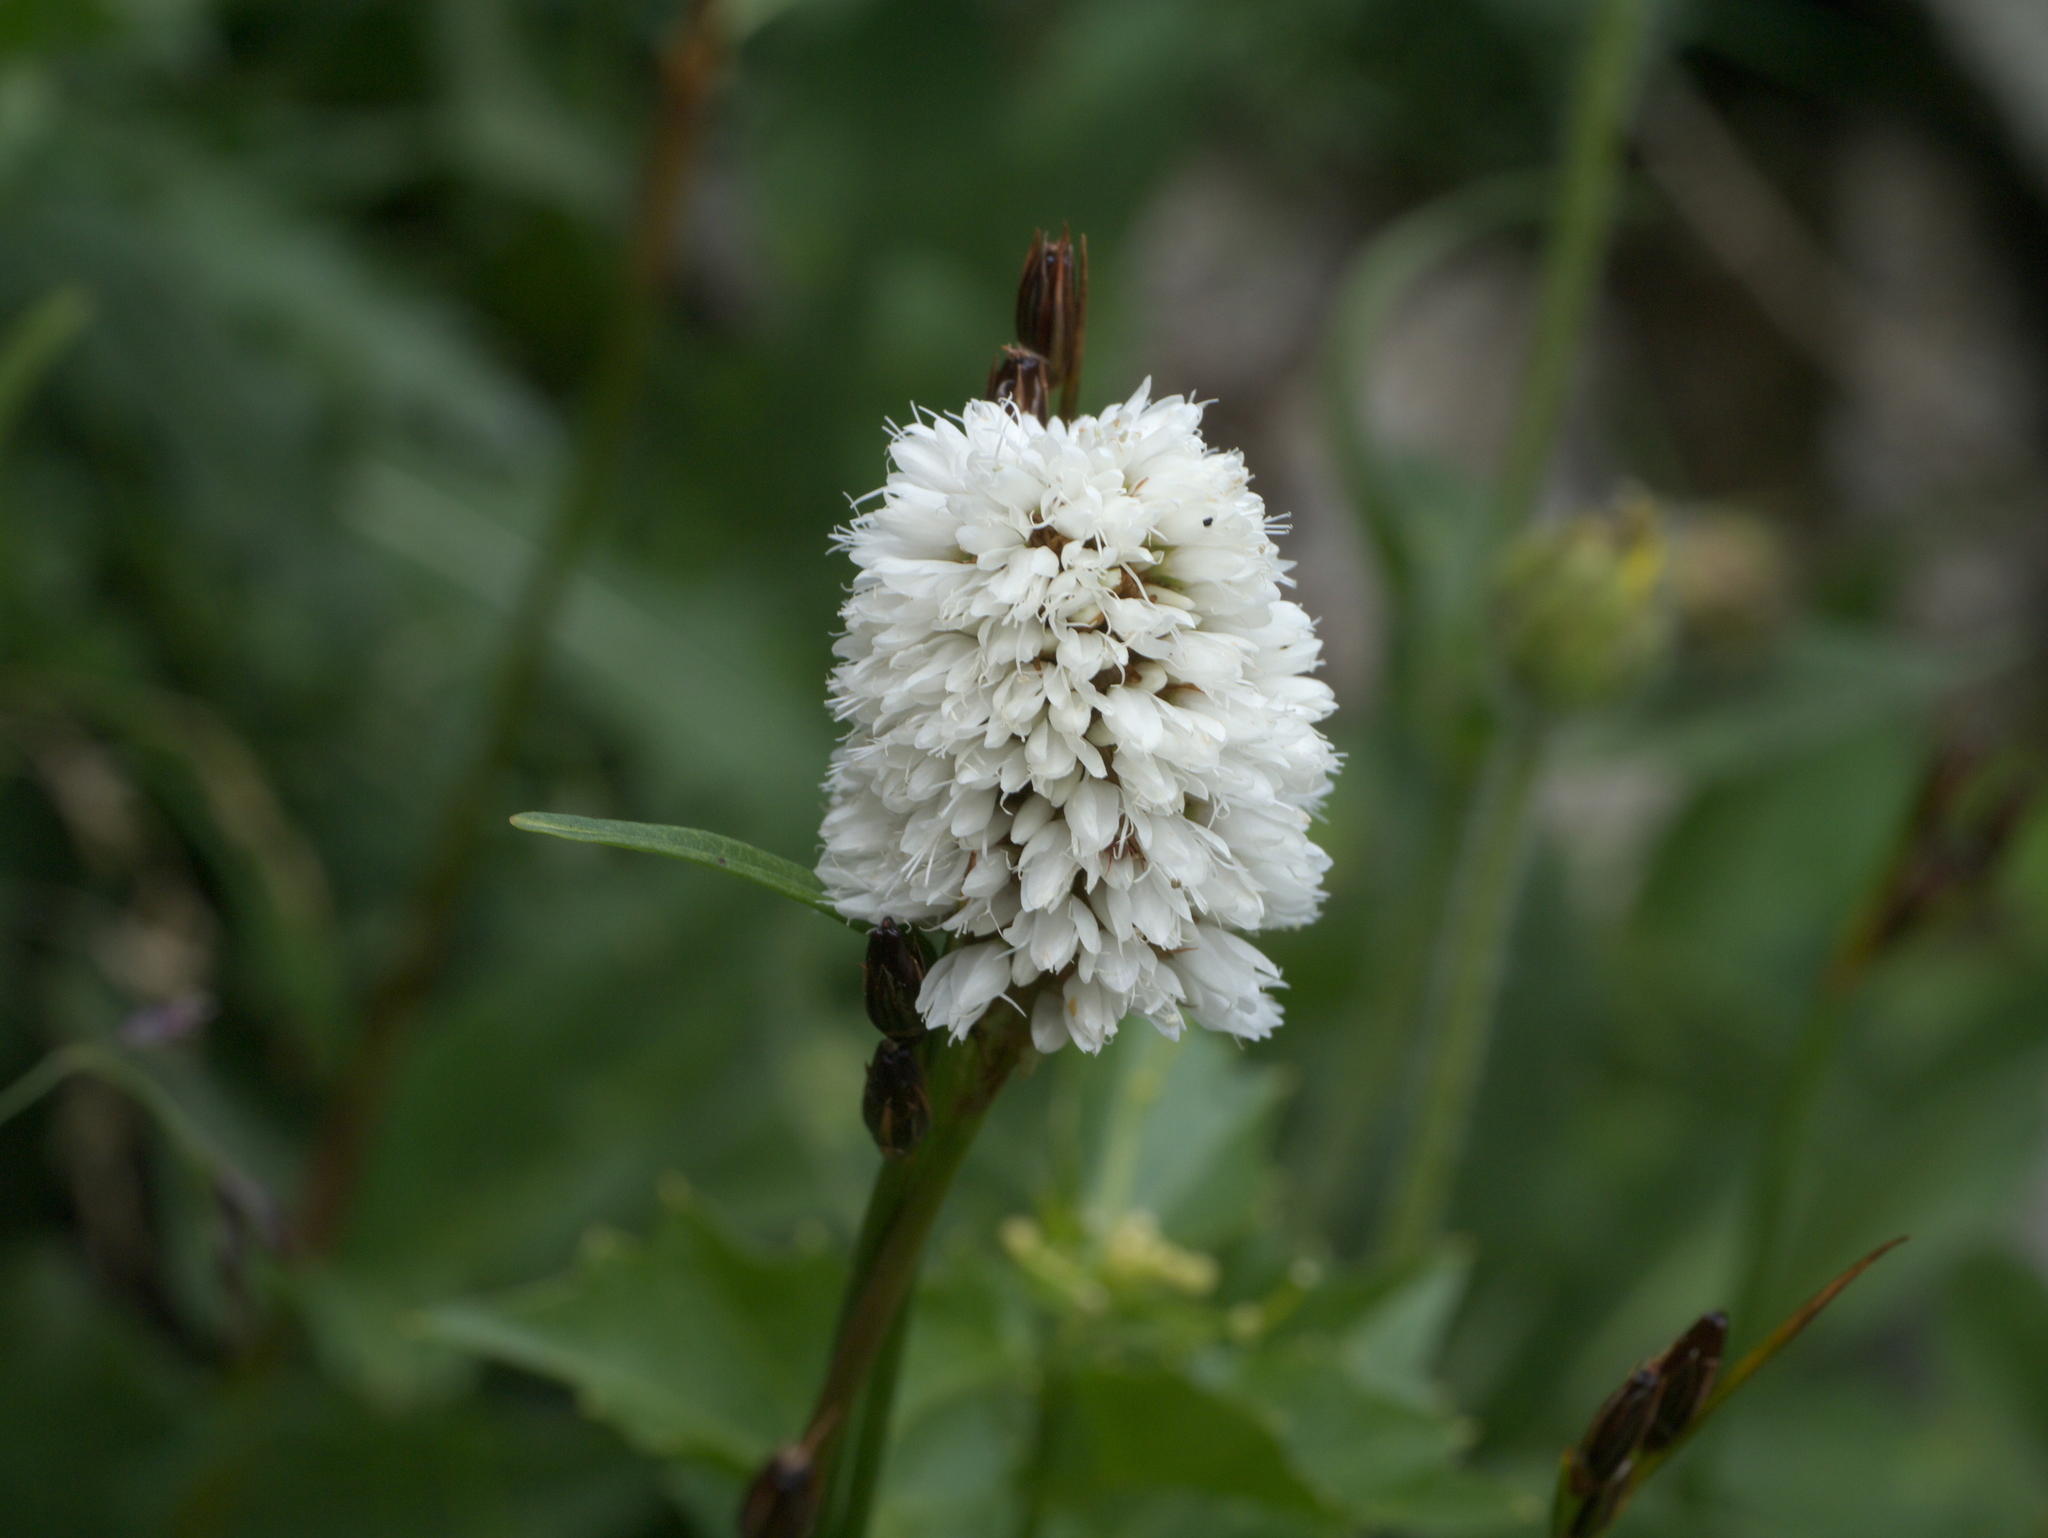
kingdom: Plantae
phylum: Tracheophyta
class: Magnoliopsida
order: Caryophyllales
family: Polygonaceae
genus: Bistorta
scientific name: Bistorta bistortoides
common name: American bistort
